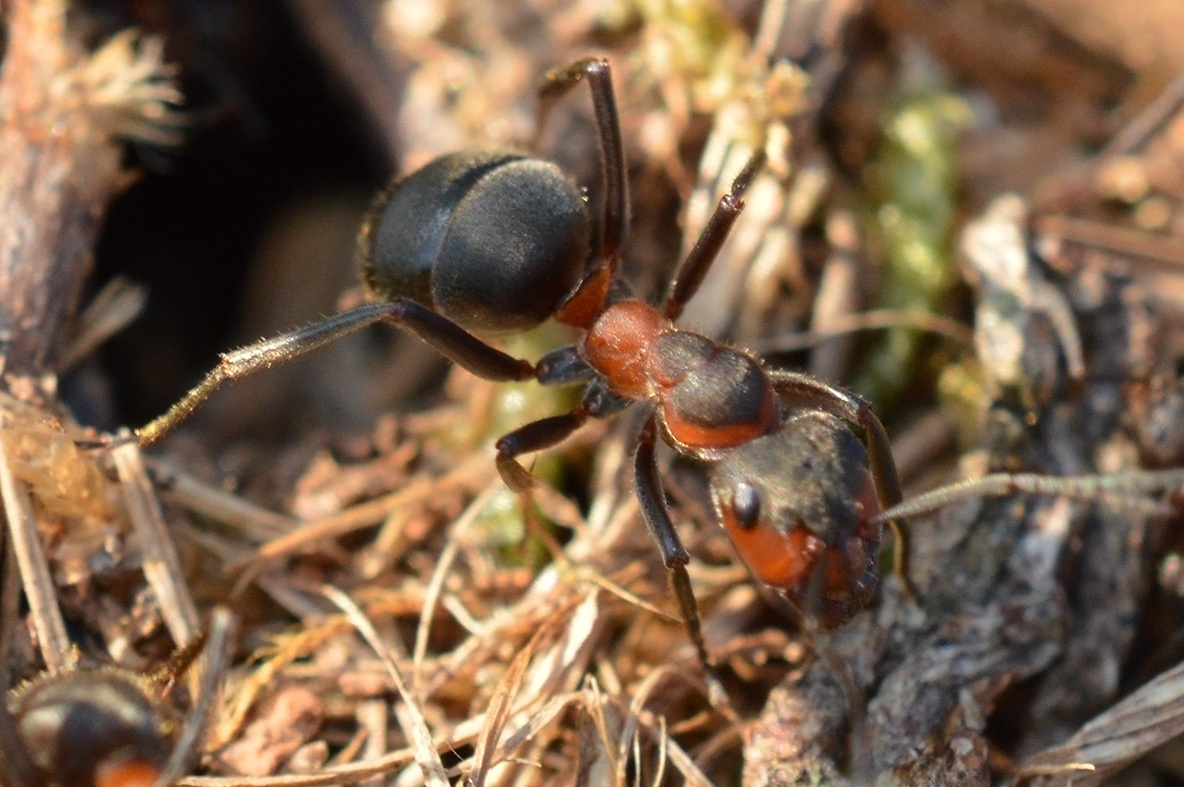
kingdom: Animalia
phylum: Arthropoda
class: Insecta
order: Hymenoptera
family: Formicidae
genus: Formica
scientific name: Formica pratensis
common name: European red wood ant
